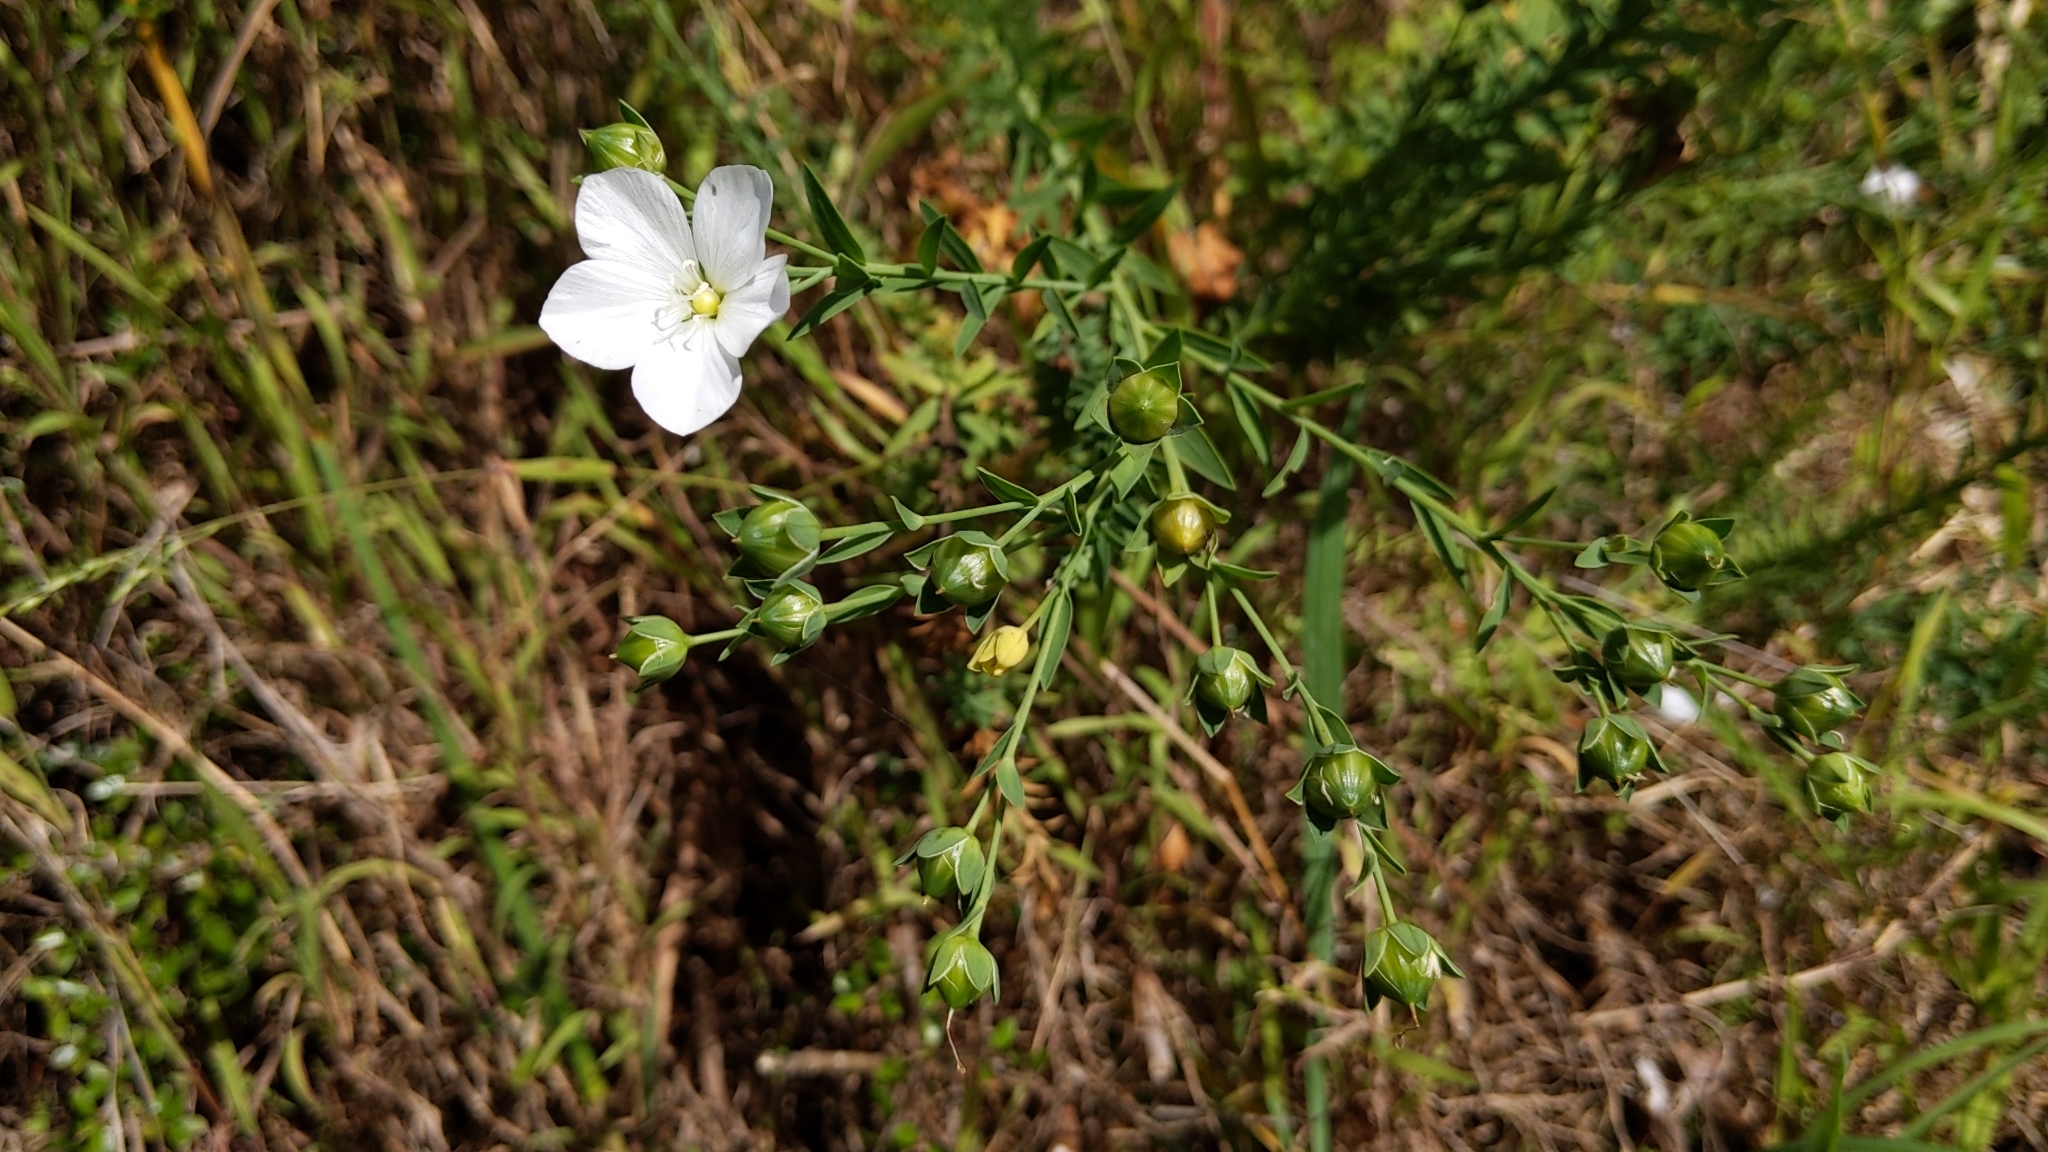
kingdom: Plantae
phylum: Tracheophyta
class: Magnoliopsida
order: Malpighiales
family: Linaceae
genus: Linum
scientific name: Linum monogynum
